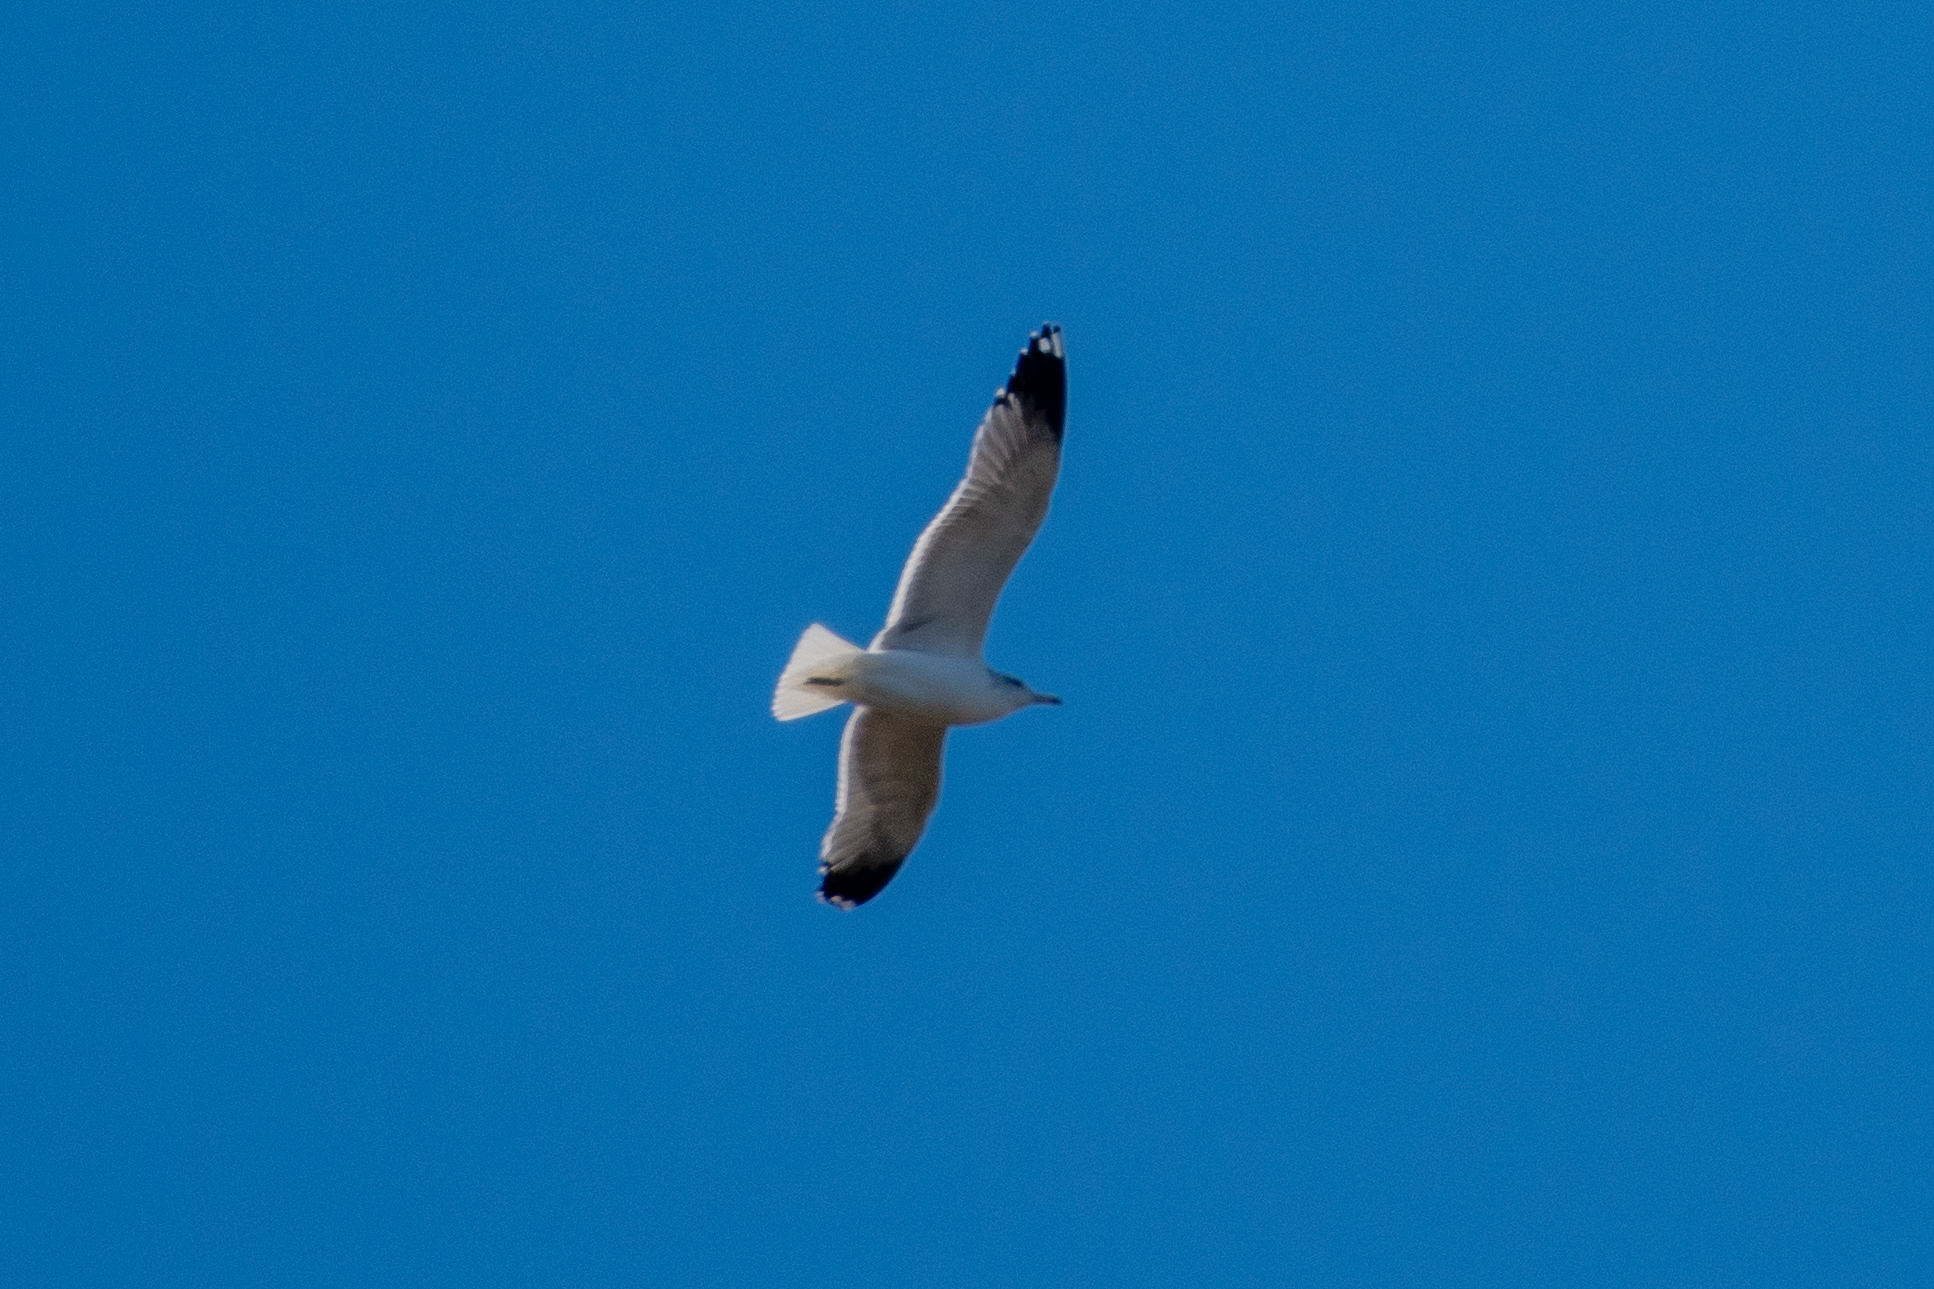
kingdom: Animalia
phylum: Chordata
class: Aves
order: Charadriiformes
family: Laridae
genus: Larus
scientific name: Larus californicus
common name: California gull
